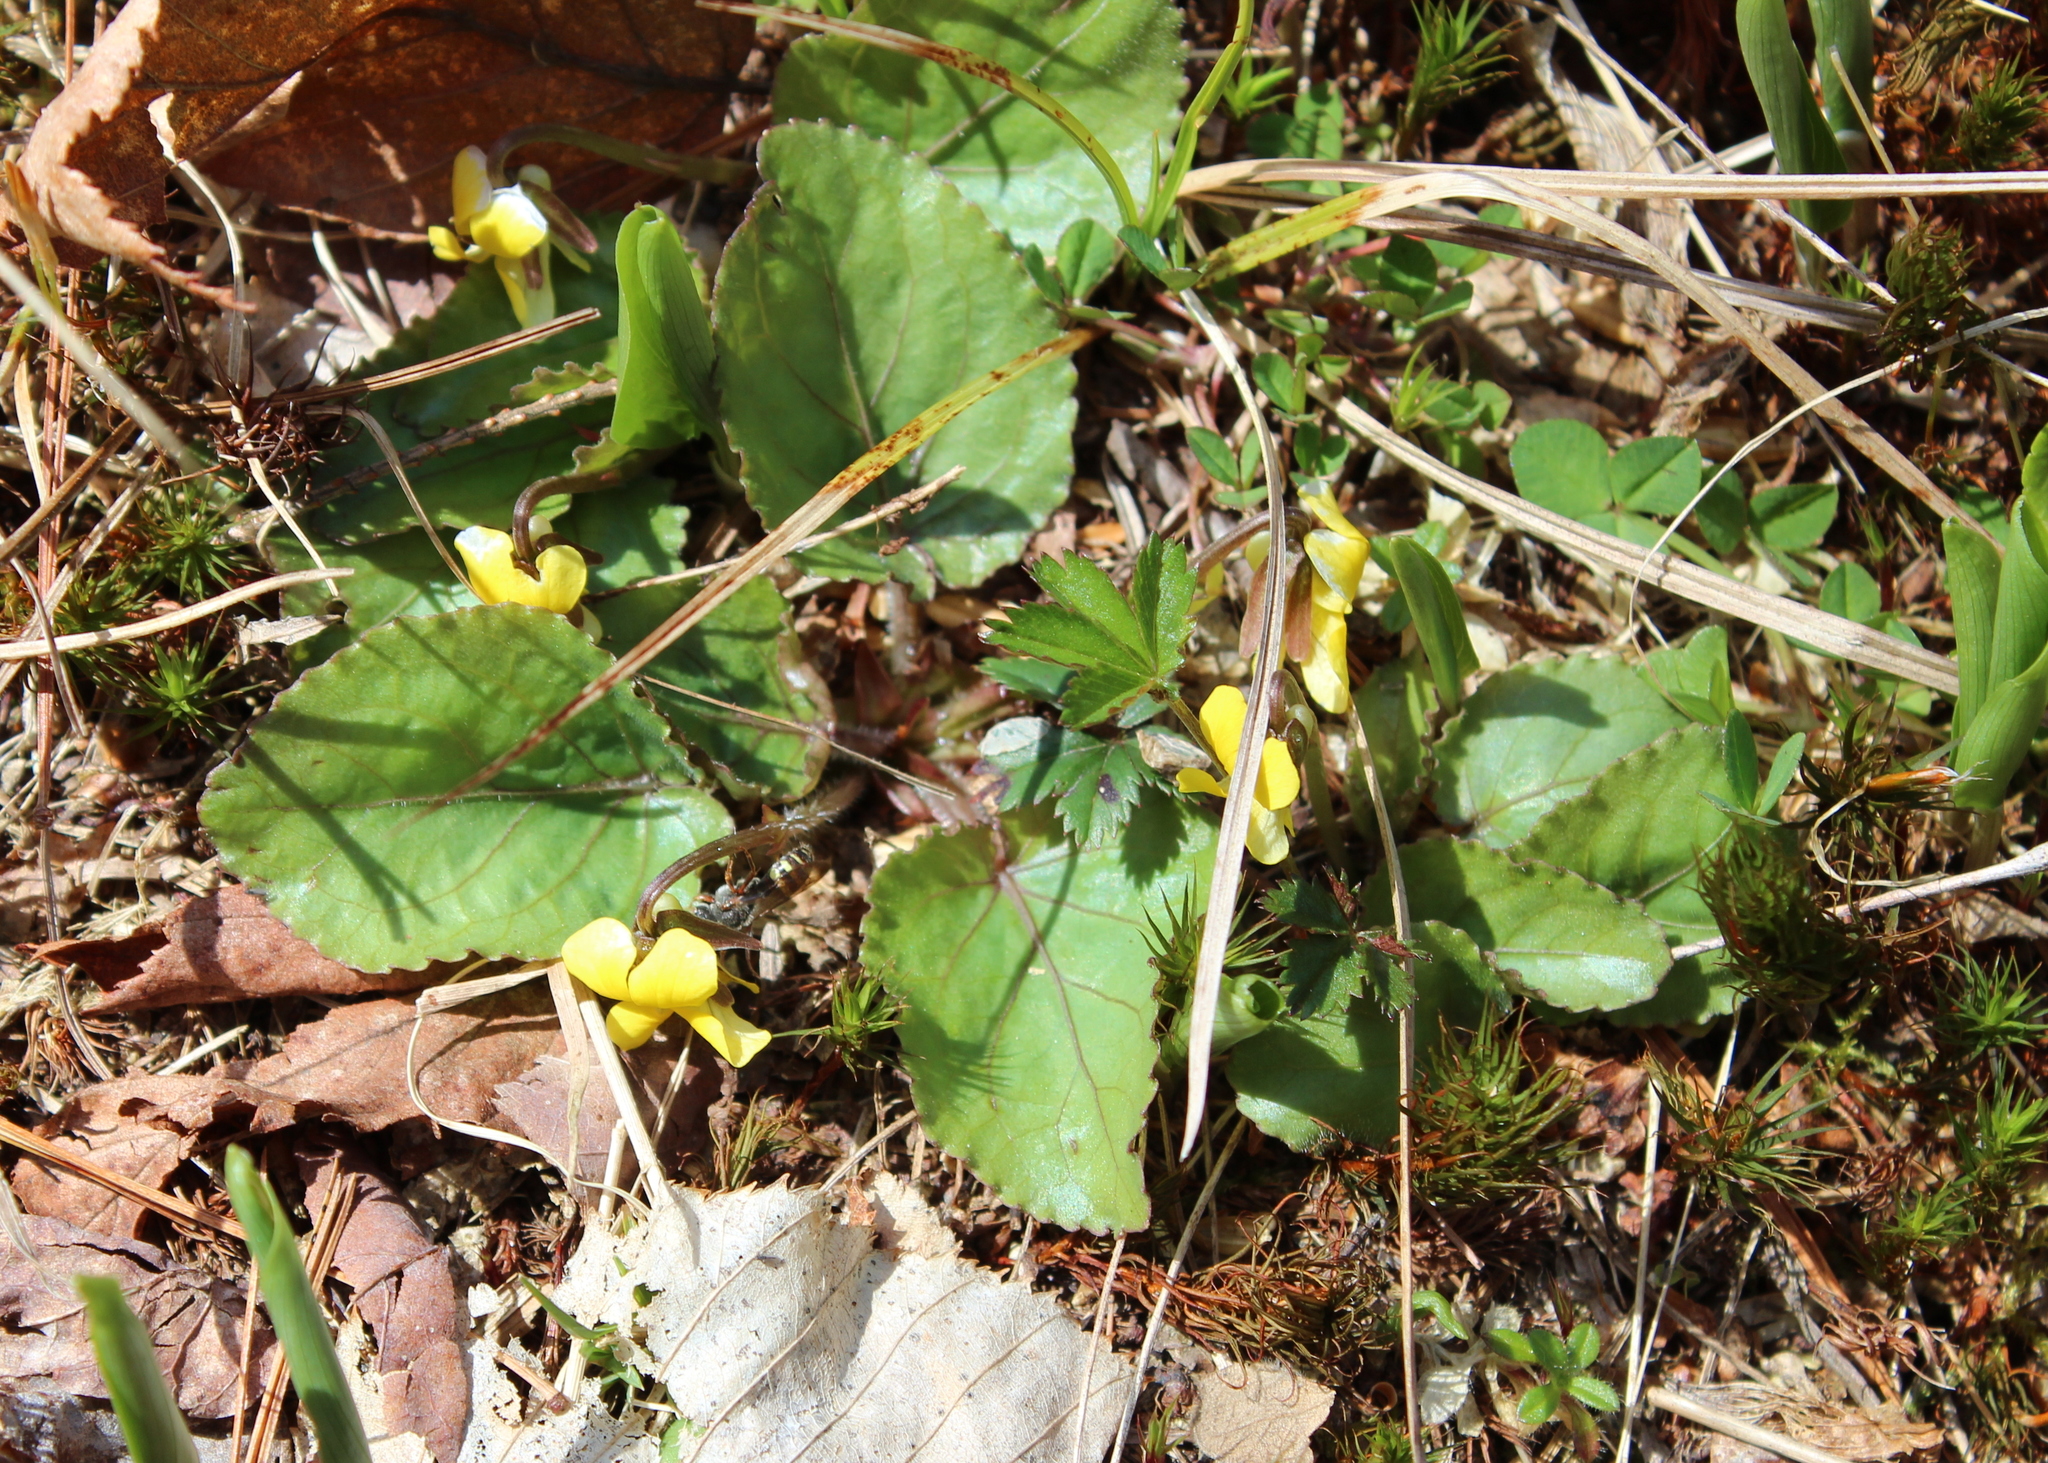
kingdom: Plantae
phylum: Tracheophyta
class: Magnoliopsida
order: Malpighiales
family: Violaceae
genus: Viola
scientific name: Viola rotundifolia
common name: Early yellow violet
